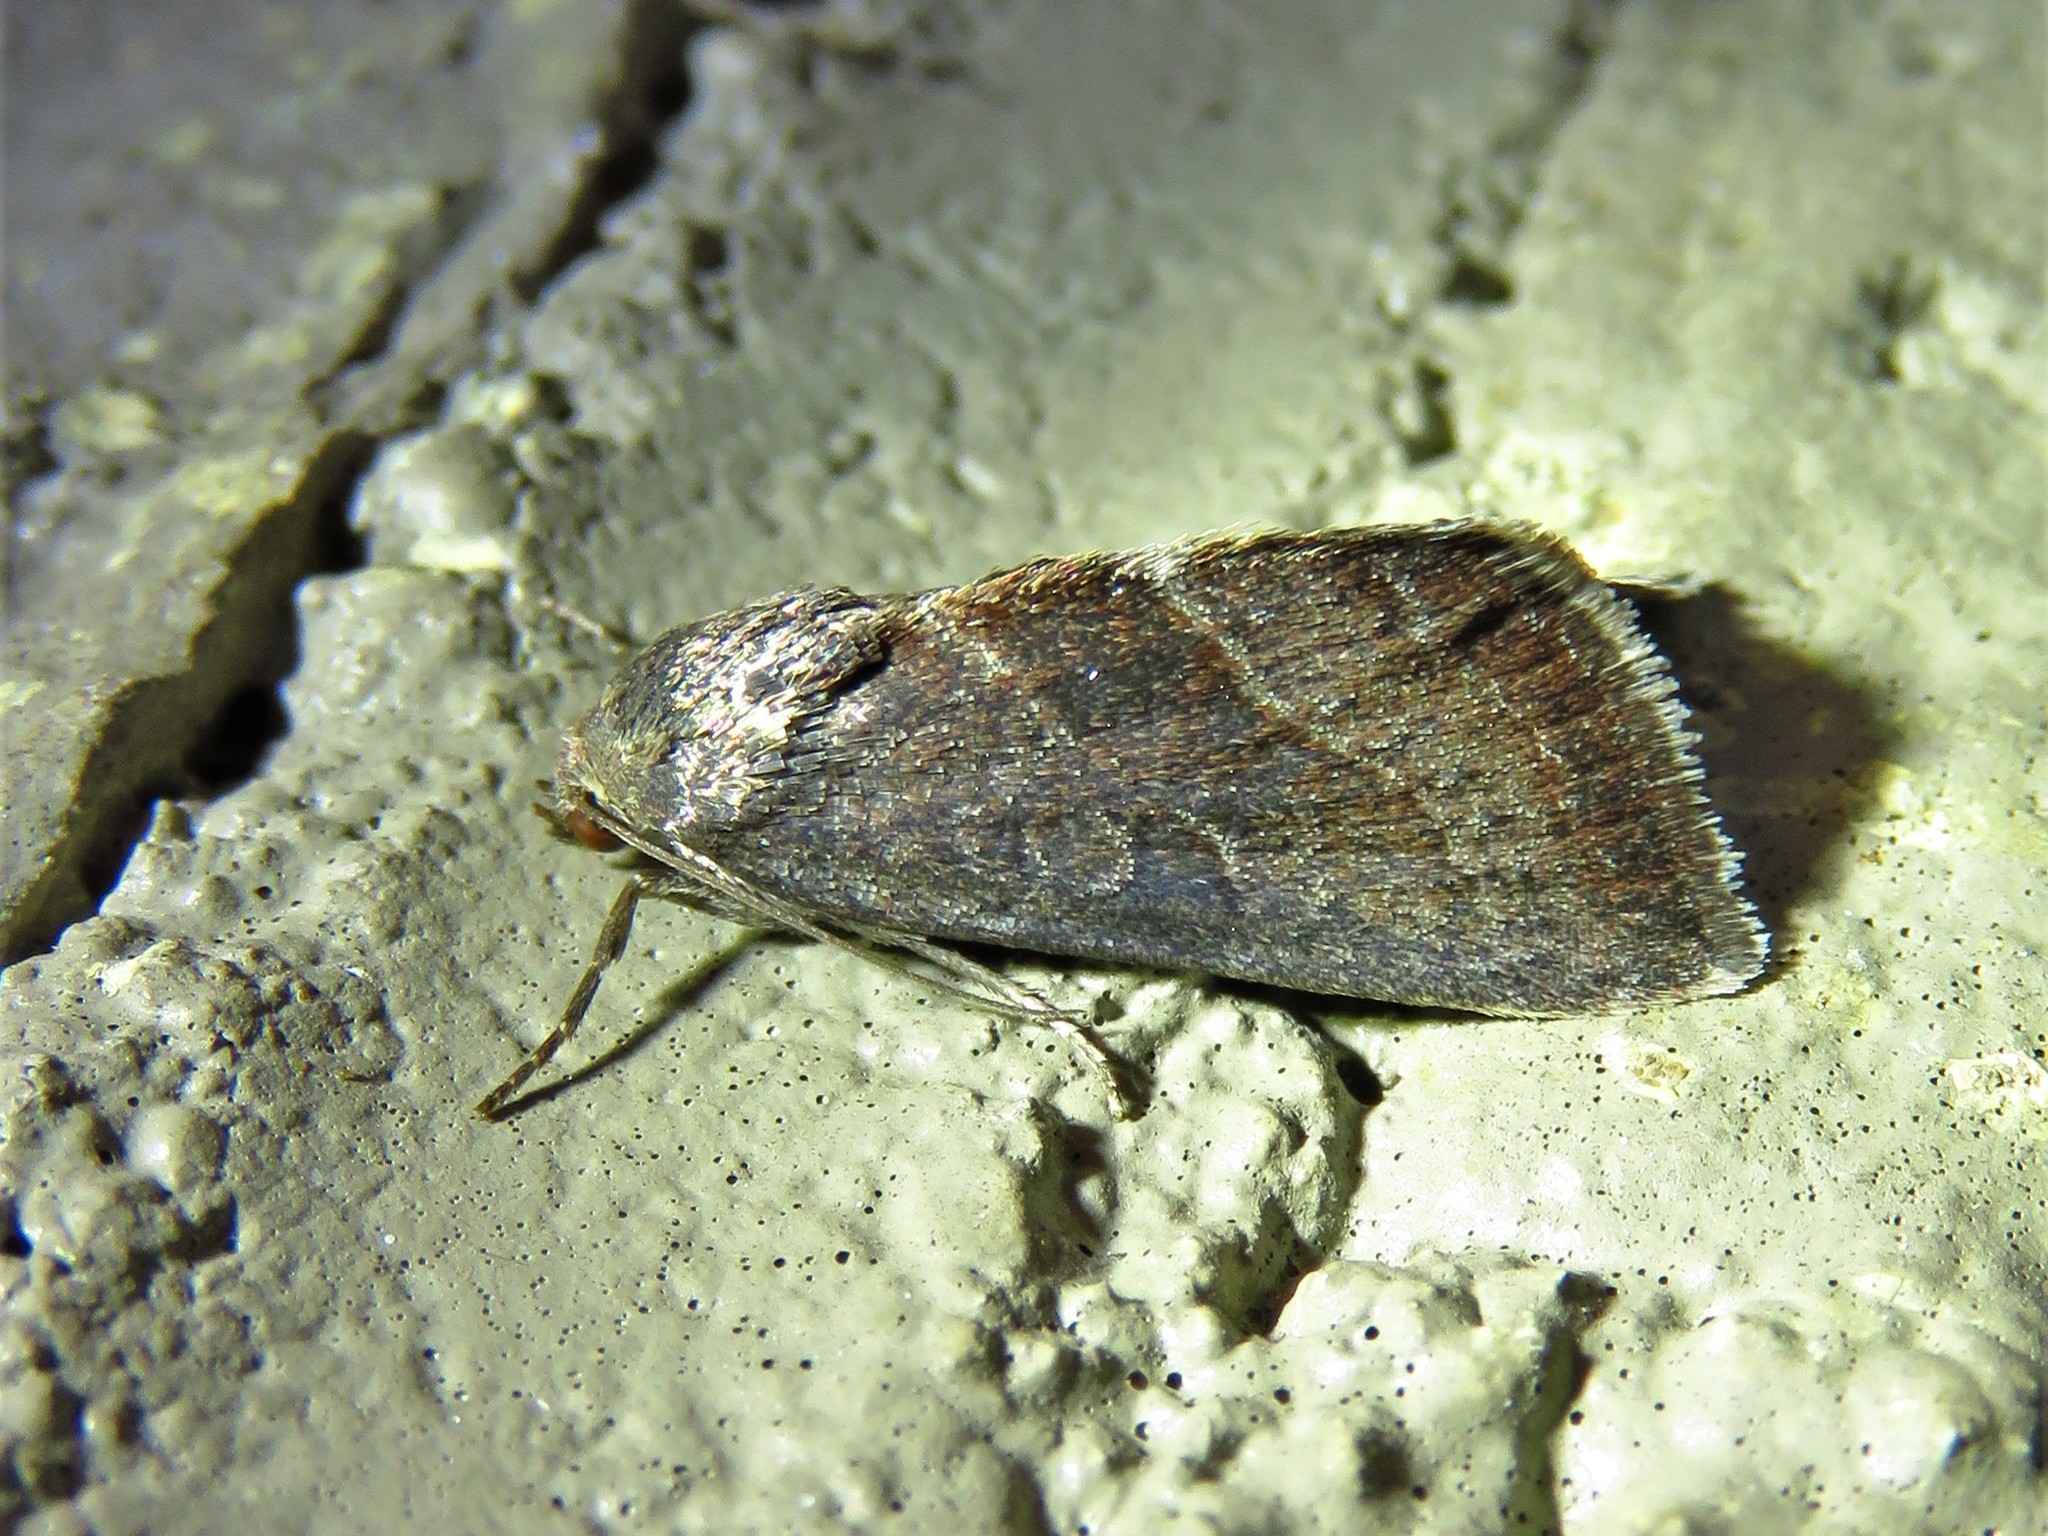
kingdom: Animalia
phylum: Arthropoda
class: Insecta
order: Lepidoptera
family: Noctuidae
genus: Galgula
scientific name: Galgula partita
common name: Wedgeling
